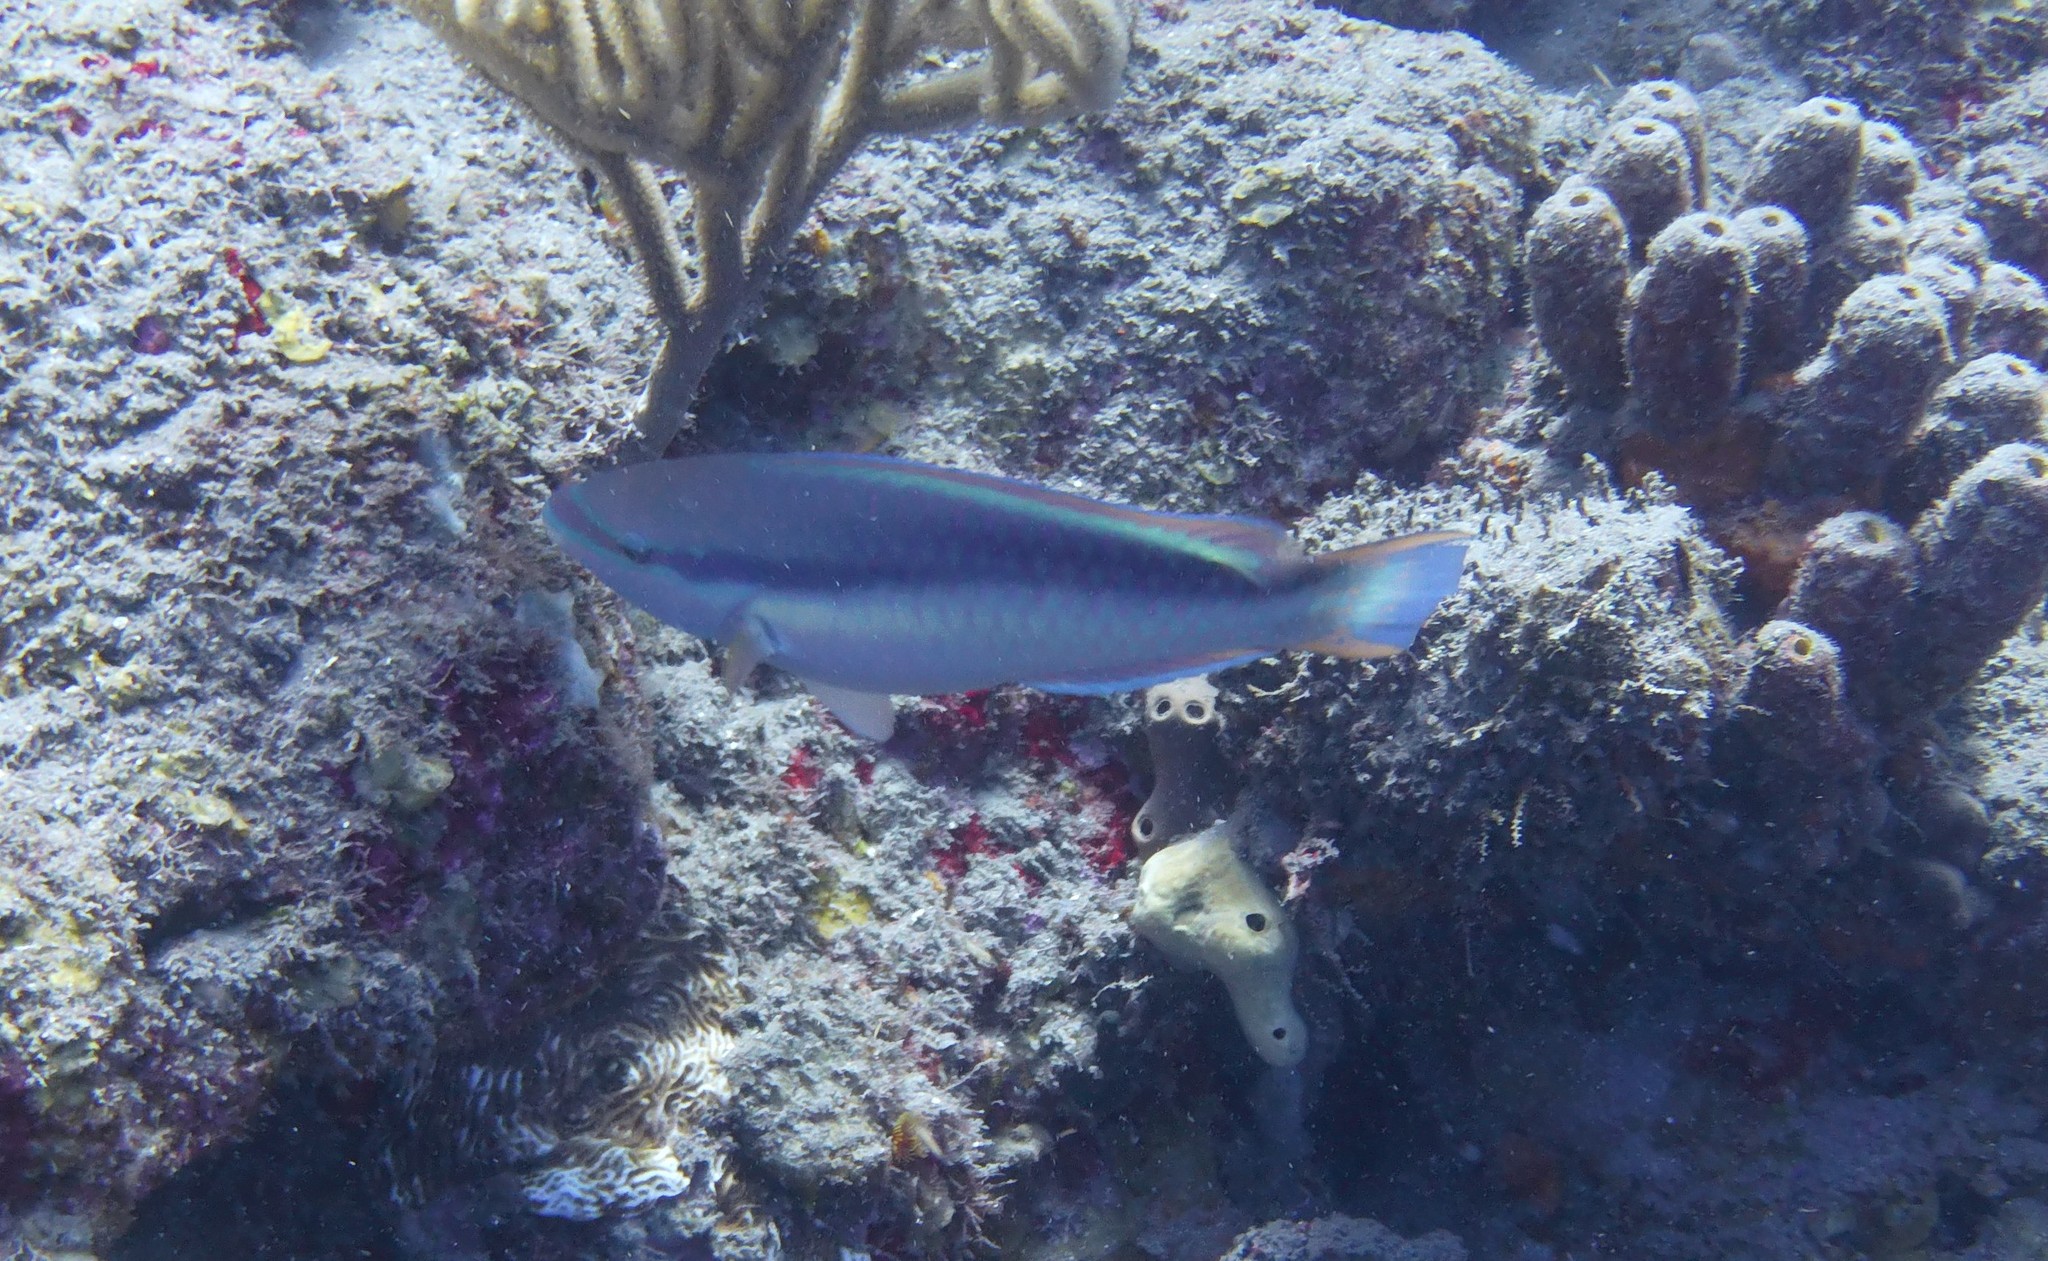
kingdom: Animalia
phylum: Chordata
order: Perciformes
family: Scaridae
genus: Scarus
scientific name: Scarus taeniopterus
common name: Princess parrotfish
